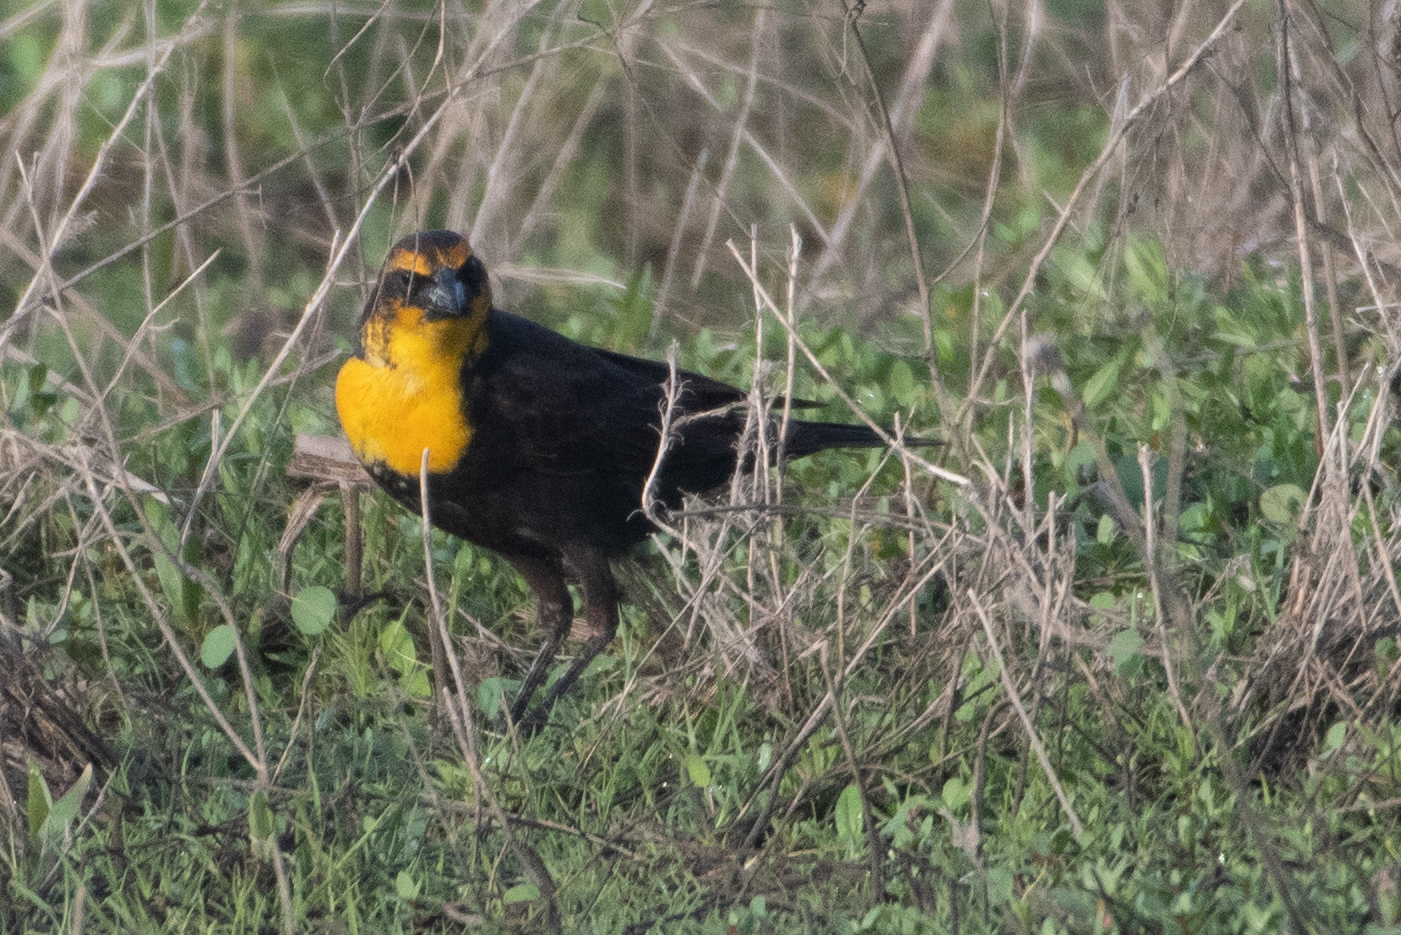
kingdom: Animalia
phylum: Chordata
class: Aves
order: Passeriformes
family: Icteridae
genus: Xanthocephalus
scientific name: Xanthocephalus xanthocephalus
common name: Yellow-headed blackbird
